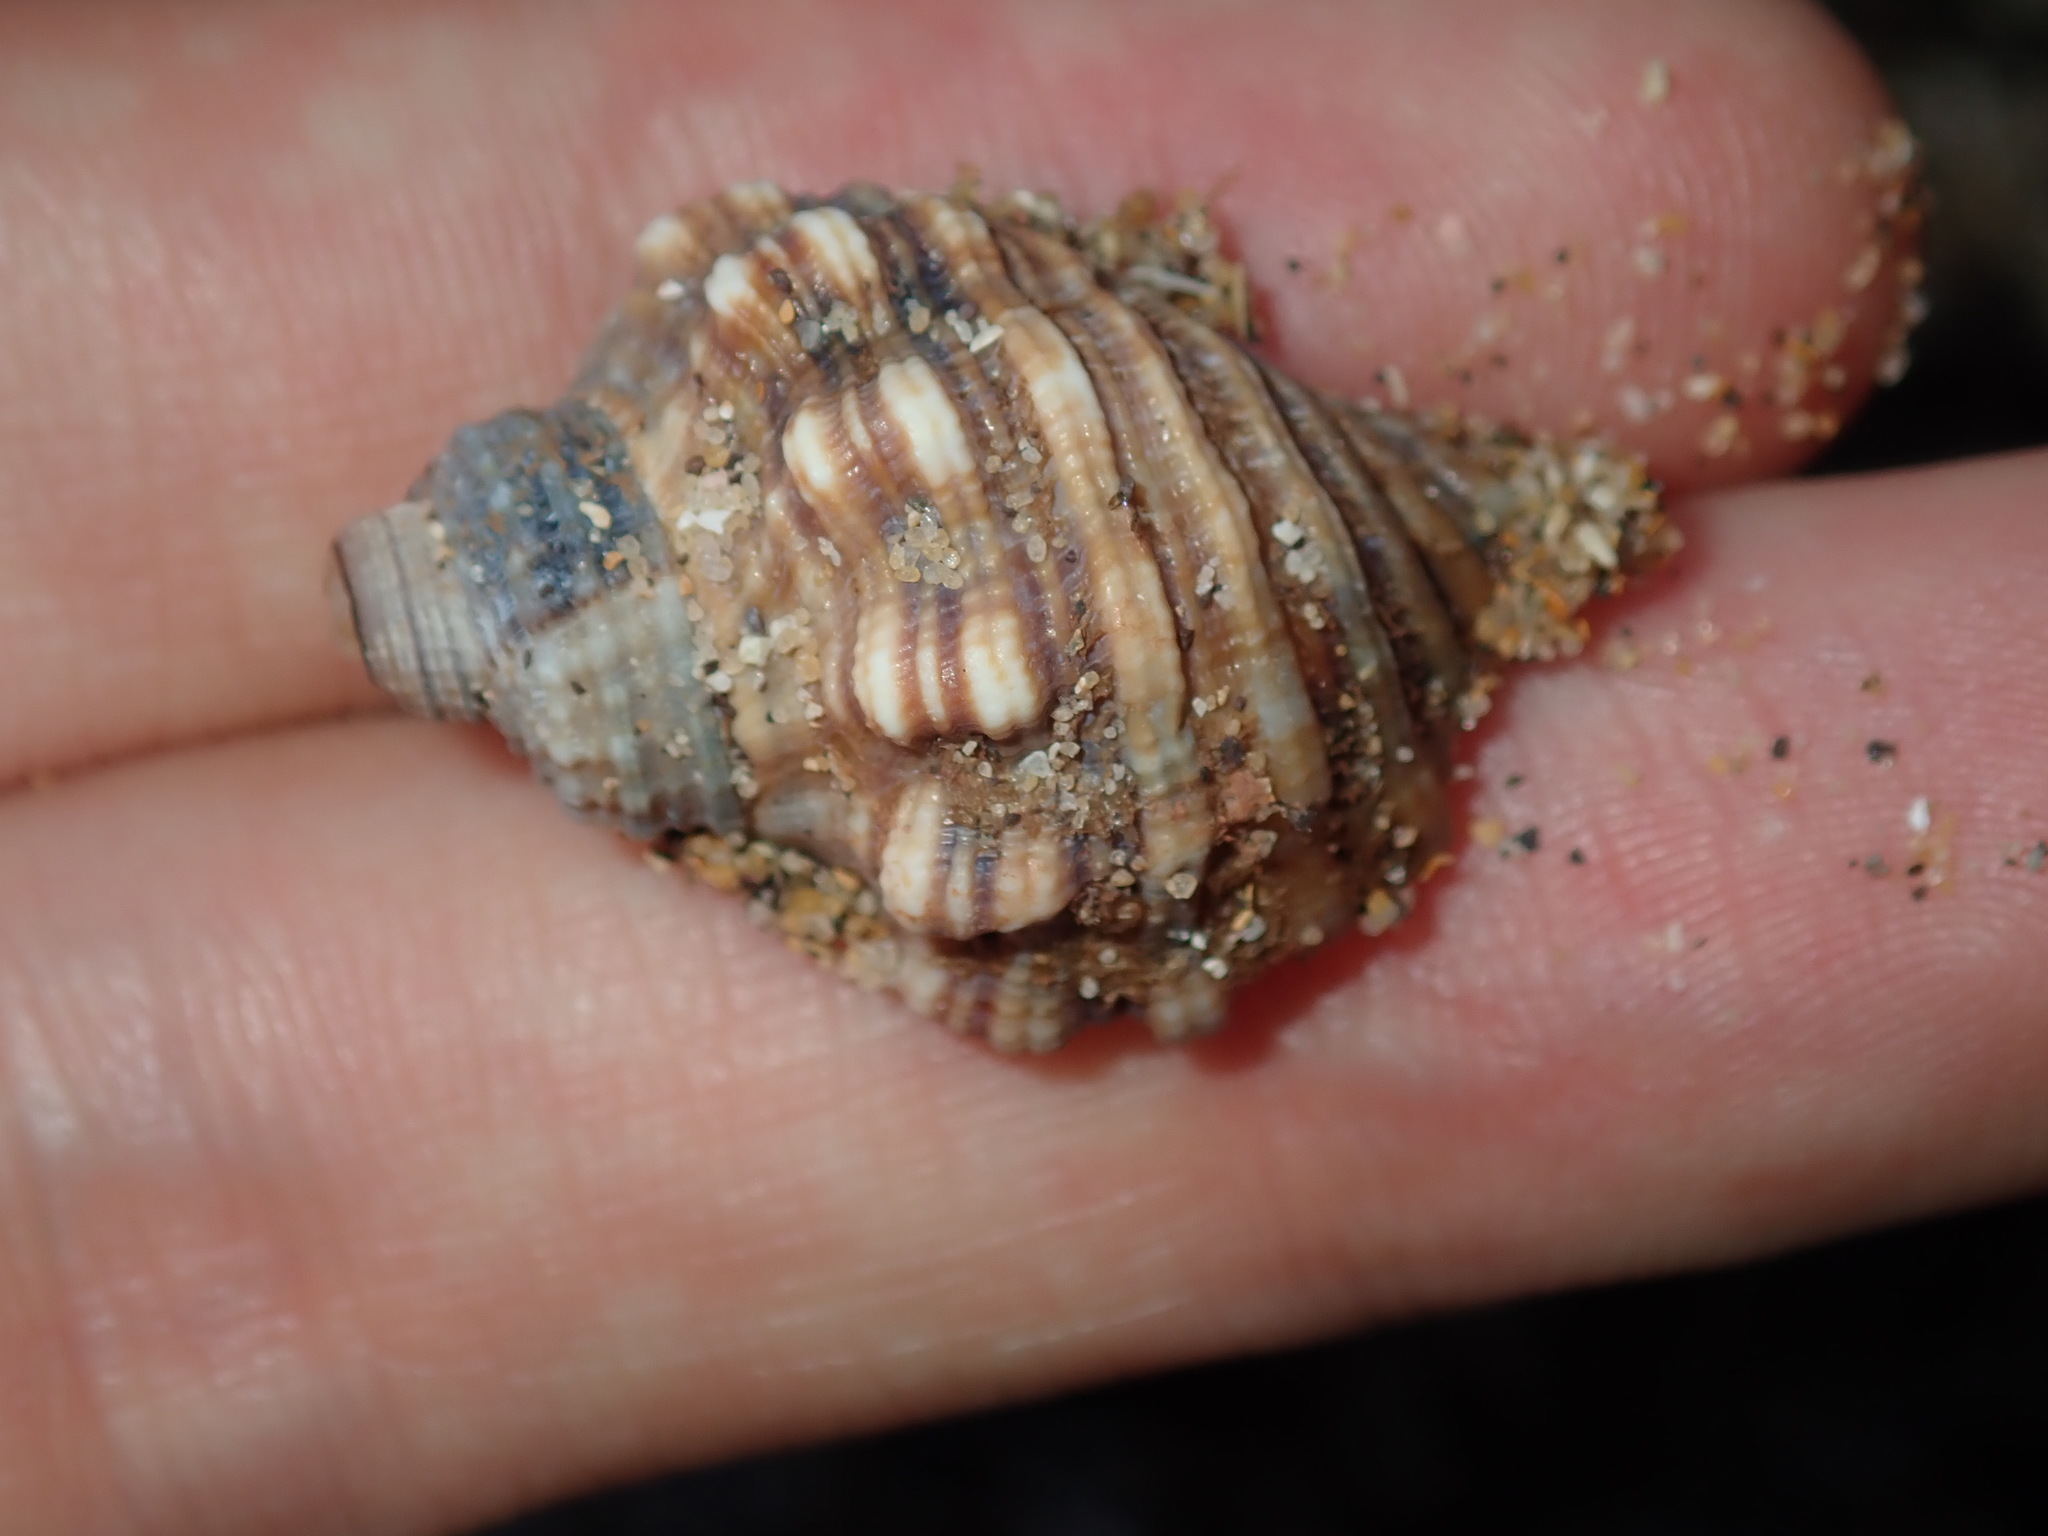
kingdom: Animalia
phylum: Mollusca
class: Gastropoda
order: Littorinimorpha
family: Cymatiidae
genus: Cabestana
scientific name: Cabestana spengleri
